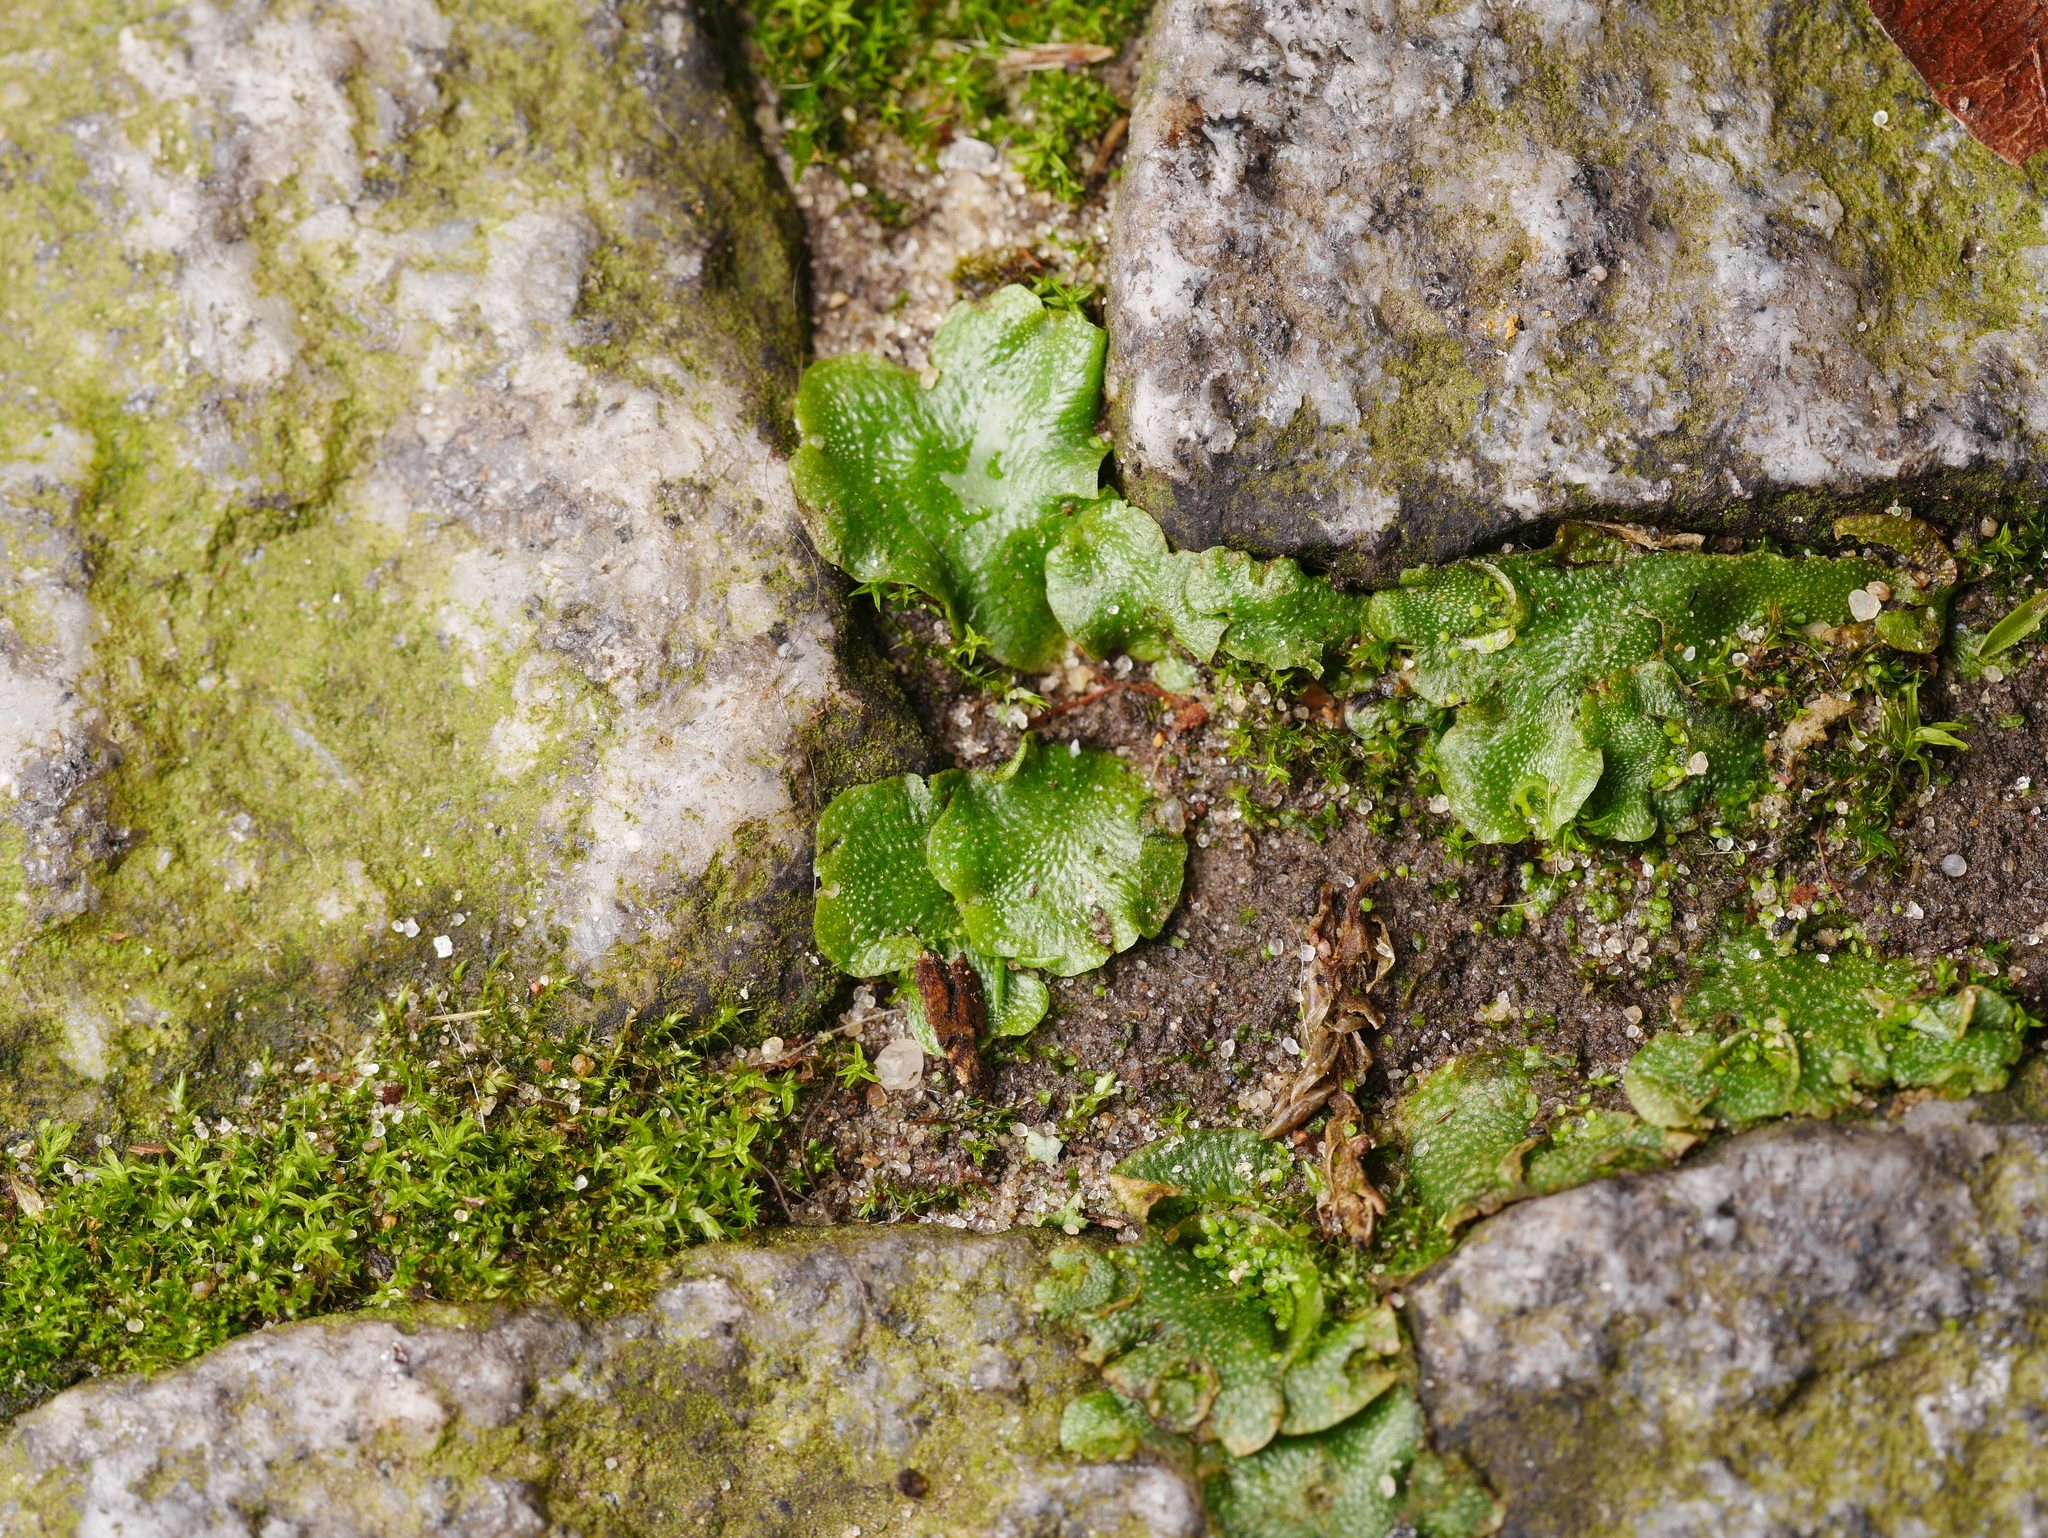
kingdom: Plantae
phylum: Marchantiophyta
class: Marchantiopsida
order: Lunulariales
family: Lunulariaceae
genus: Lunularia
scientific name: Lunularia cruciata
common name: Crescent-cup liverwort
